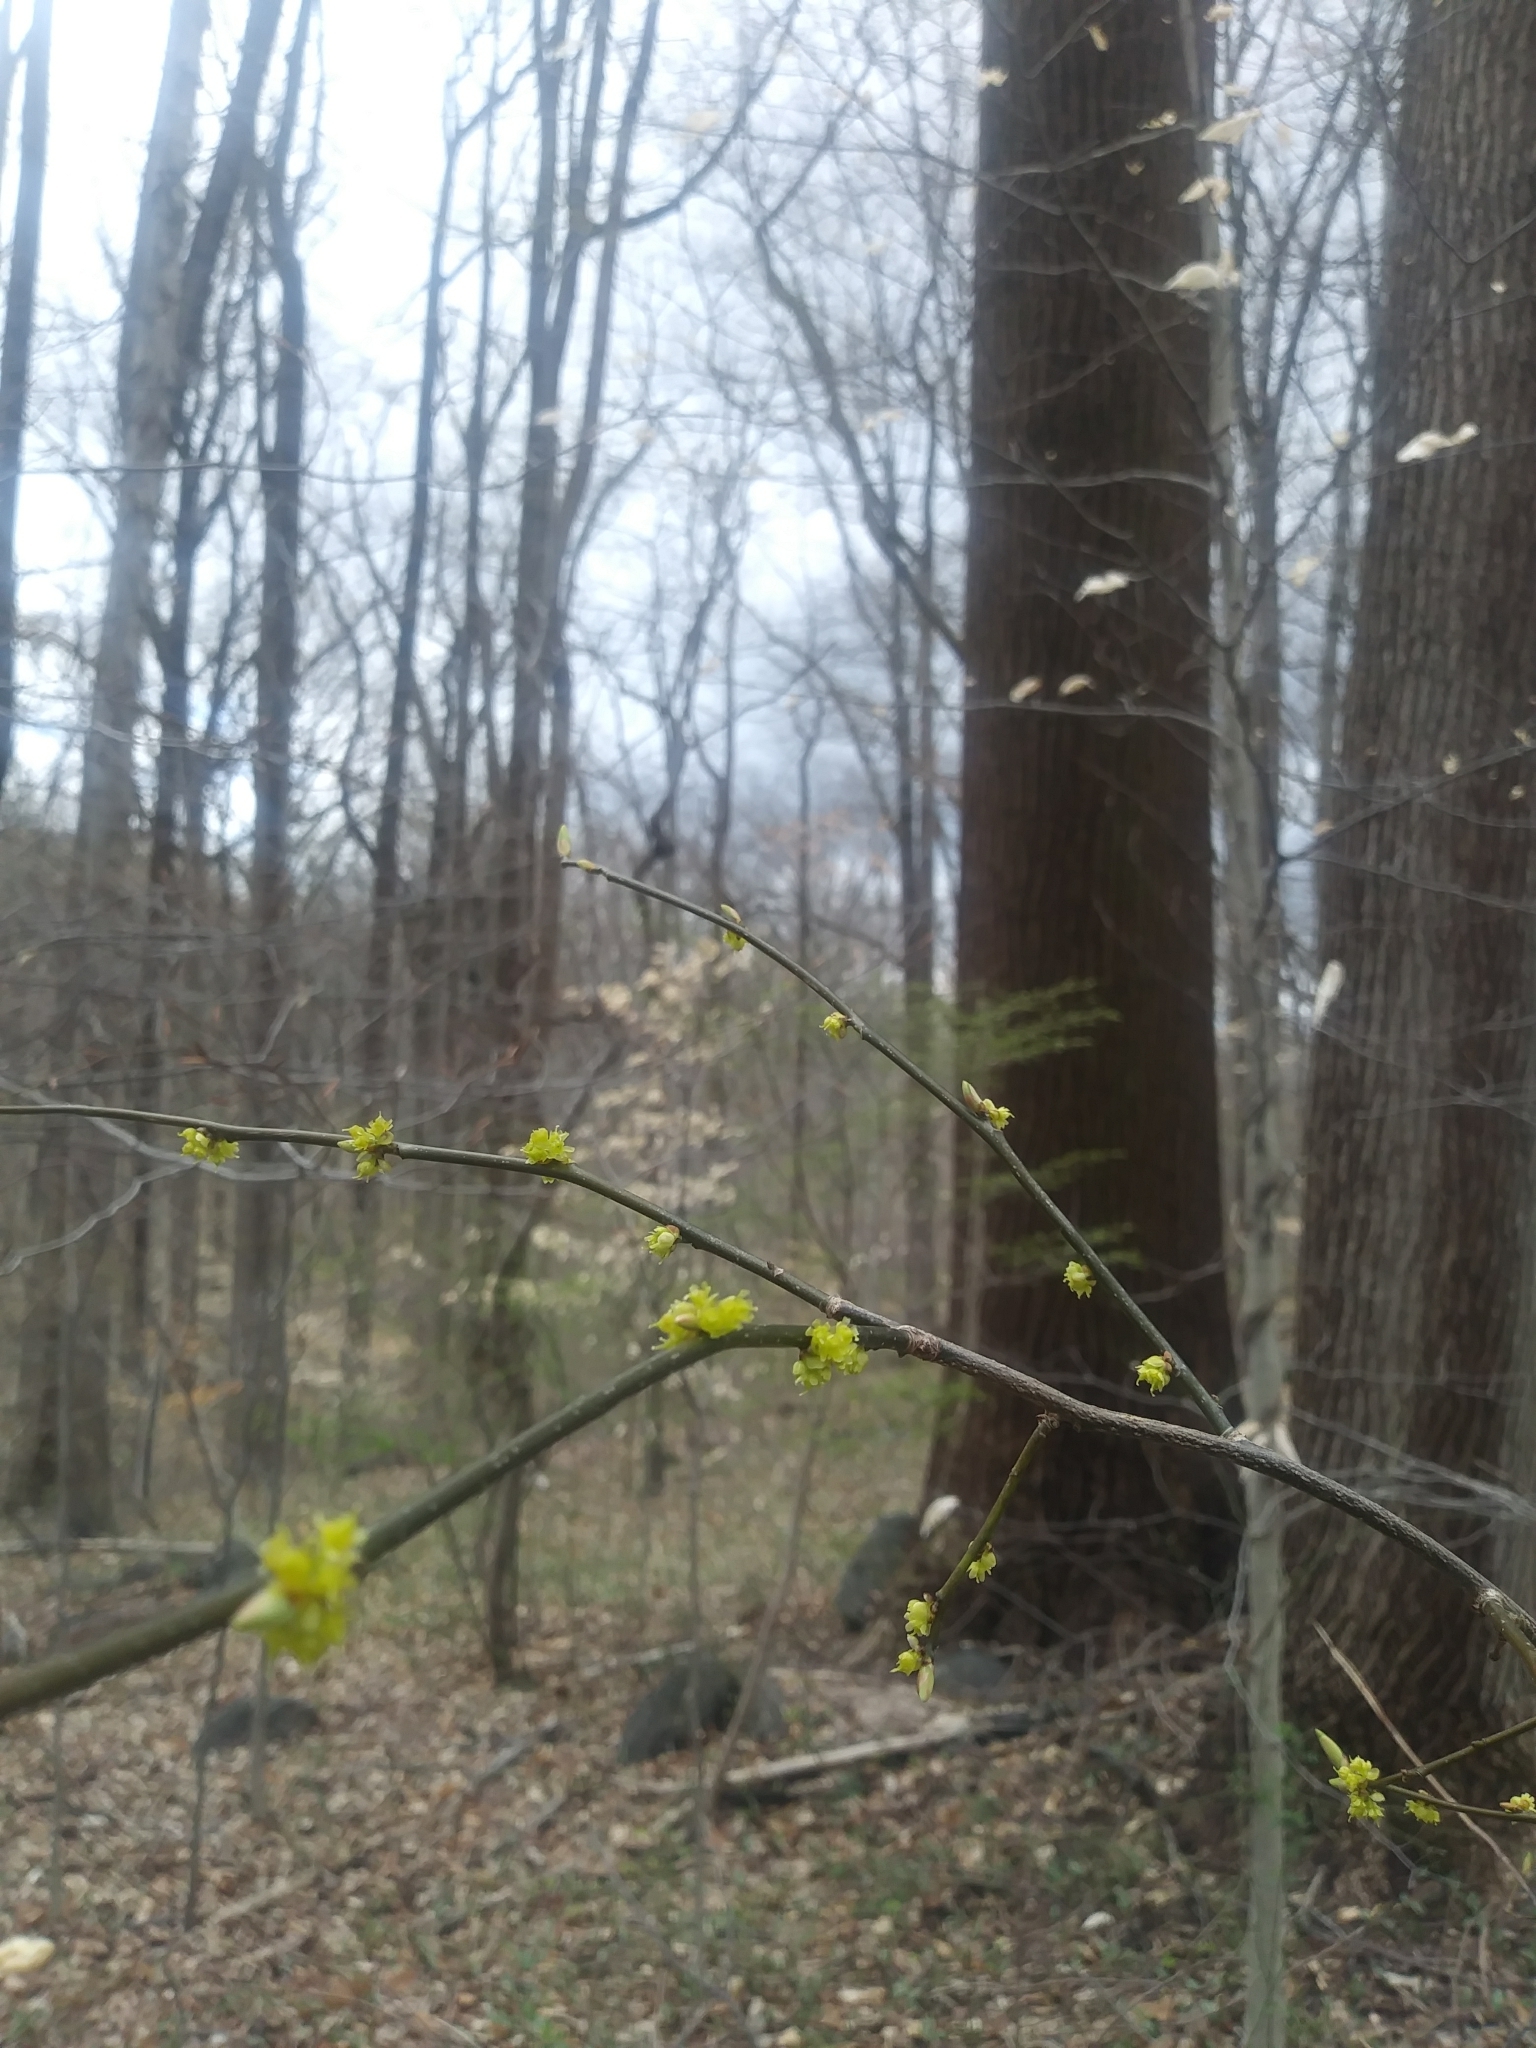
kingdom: Plantae
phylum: Tracheophyta
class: Magnoliopsida
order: Laurales
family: Lauraceae
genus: Lindera
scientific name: Lindera benzoin
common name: Spicebush
